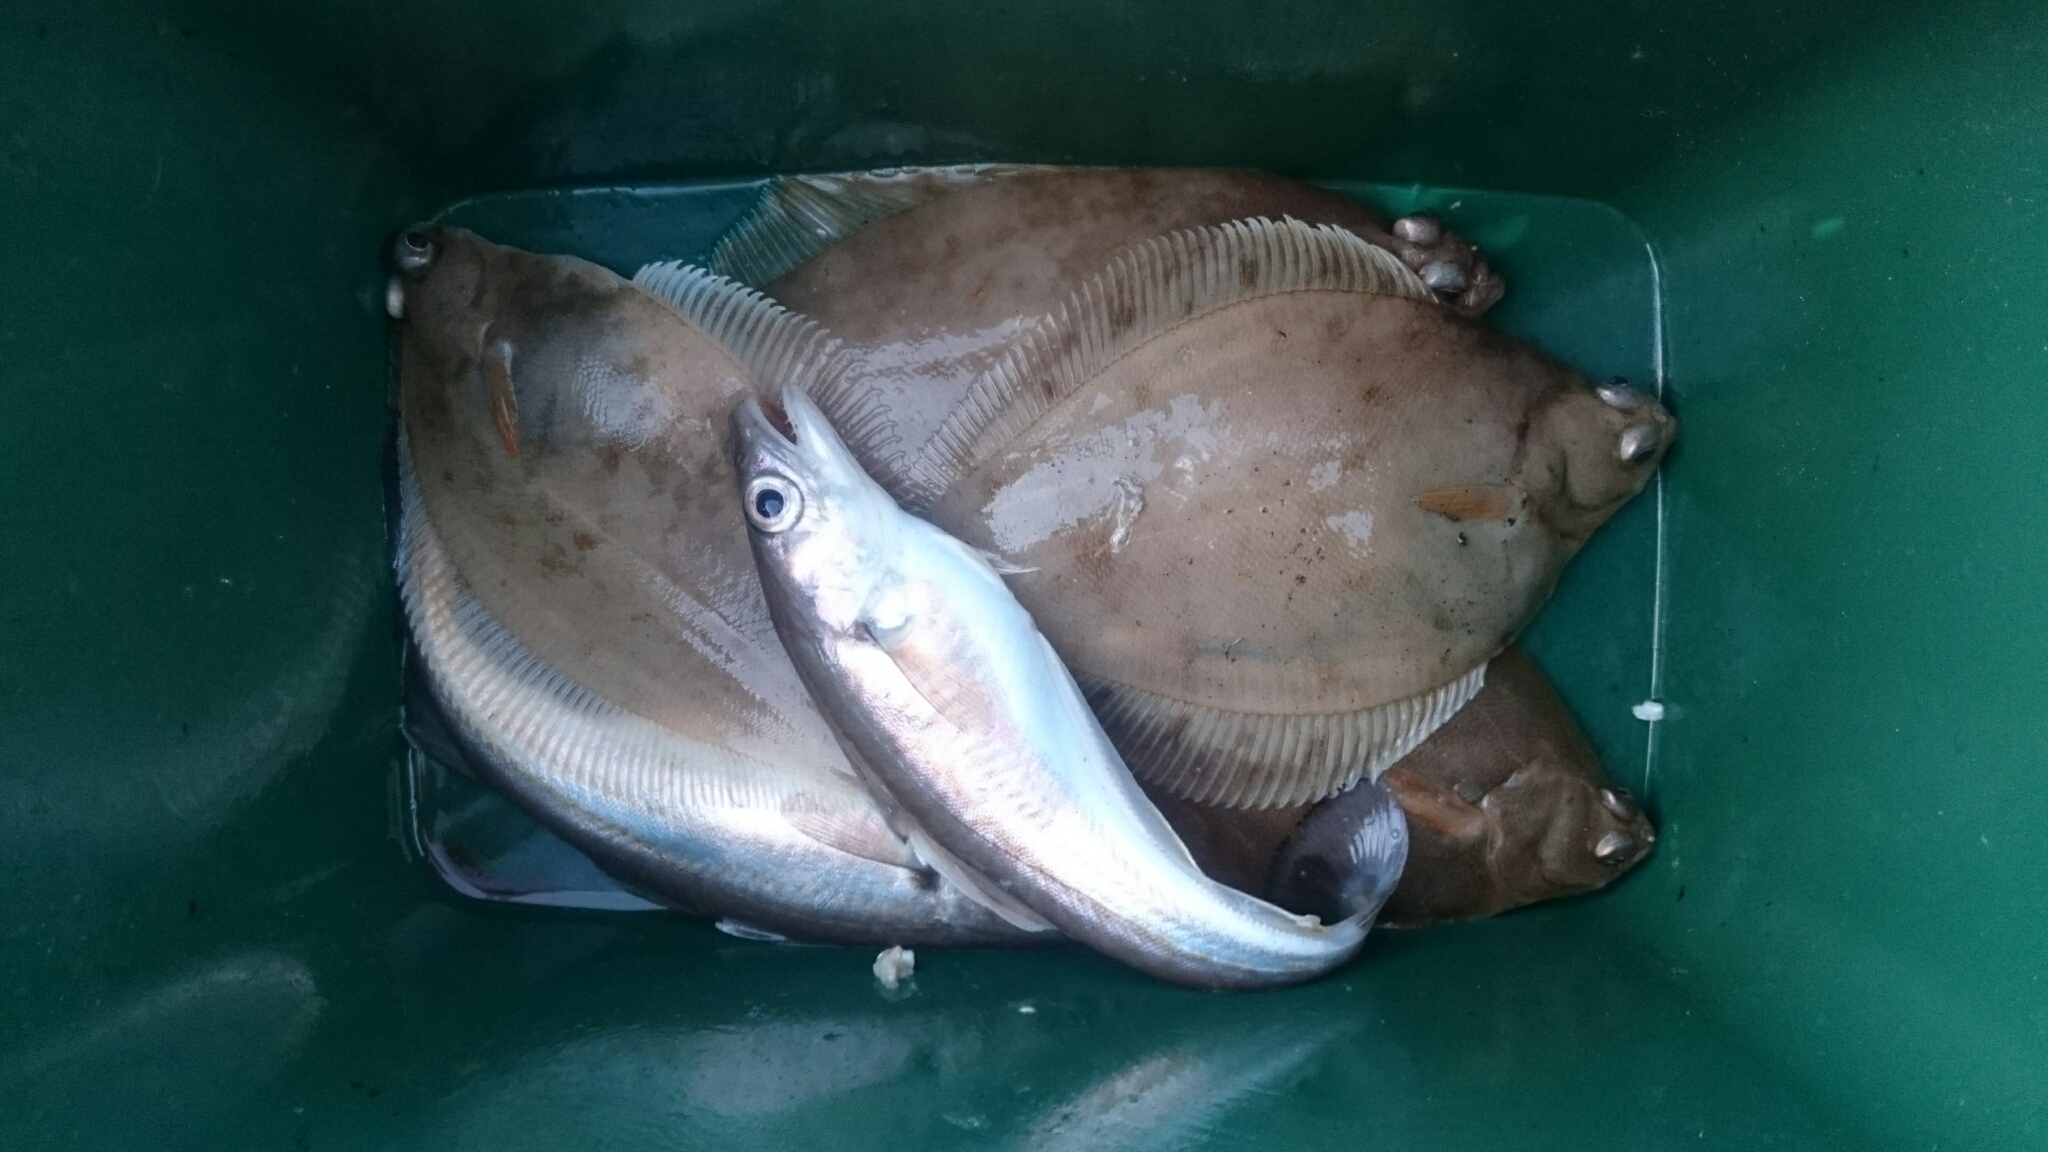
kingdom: Animalia
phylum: Chordata
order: Pleuronectiformes
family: Pleuronectidae
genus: Limanda
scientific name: Limanda limanda
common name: Dab
